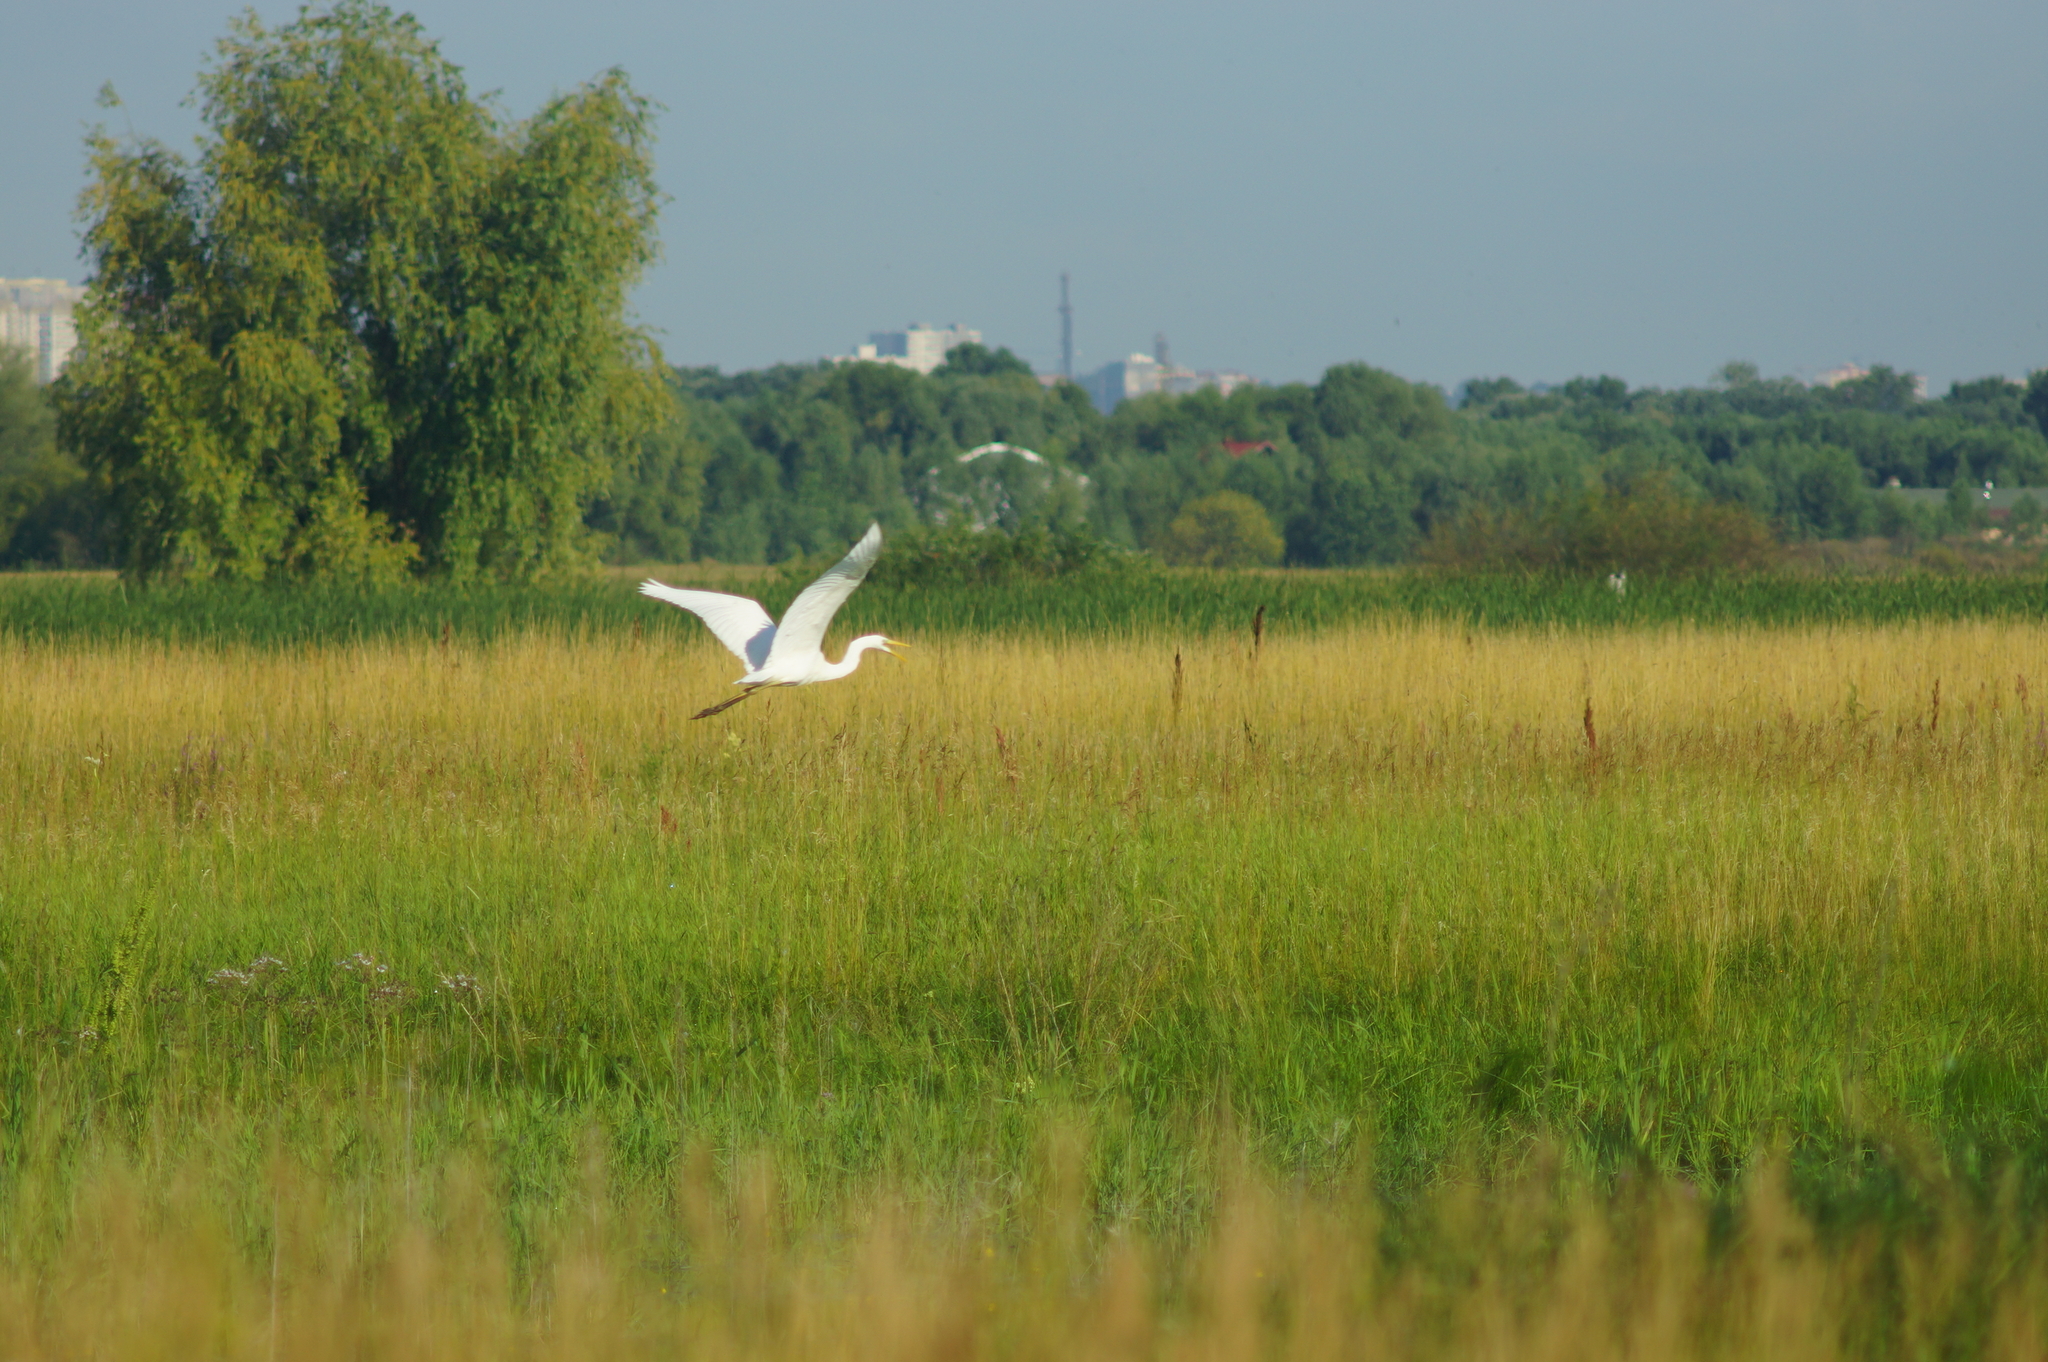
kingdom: Animalia
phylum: Chordata
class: Aves
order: Pelecaniformes
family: Ardeidae
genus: Ardea
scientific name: Ardea alba
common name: Great egret
